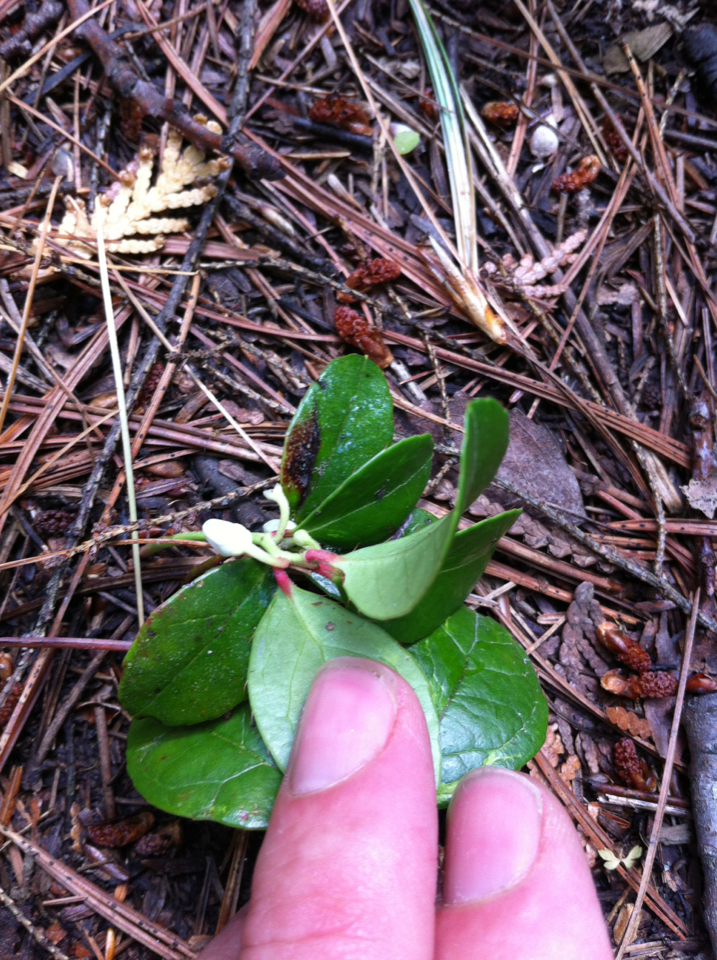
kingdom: Plantae
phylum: Tracheophyta
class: Magnoliopsida
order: Ericales
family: Ericaceae
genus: Gaultheria
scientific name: Gaultheria procumbens
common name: Checkerberry
